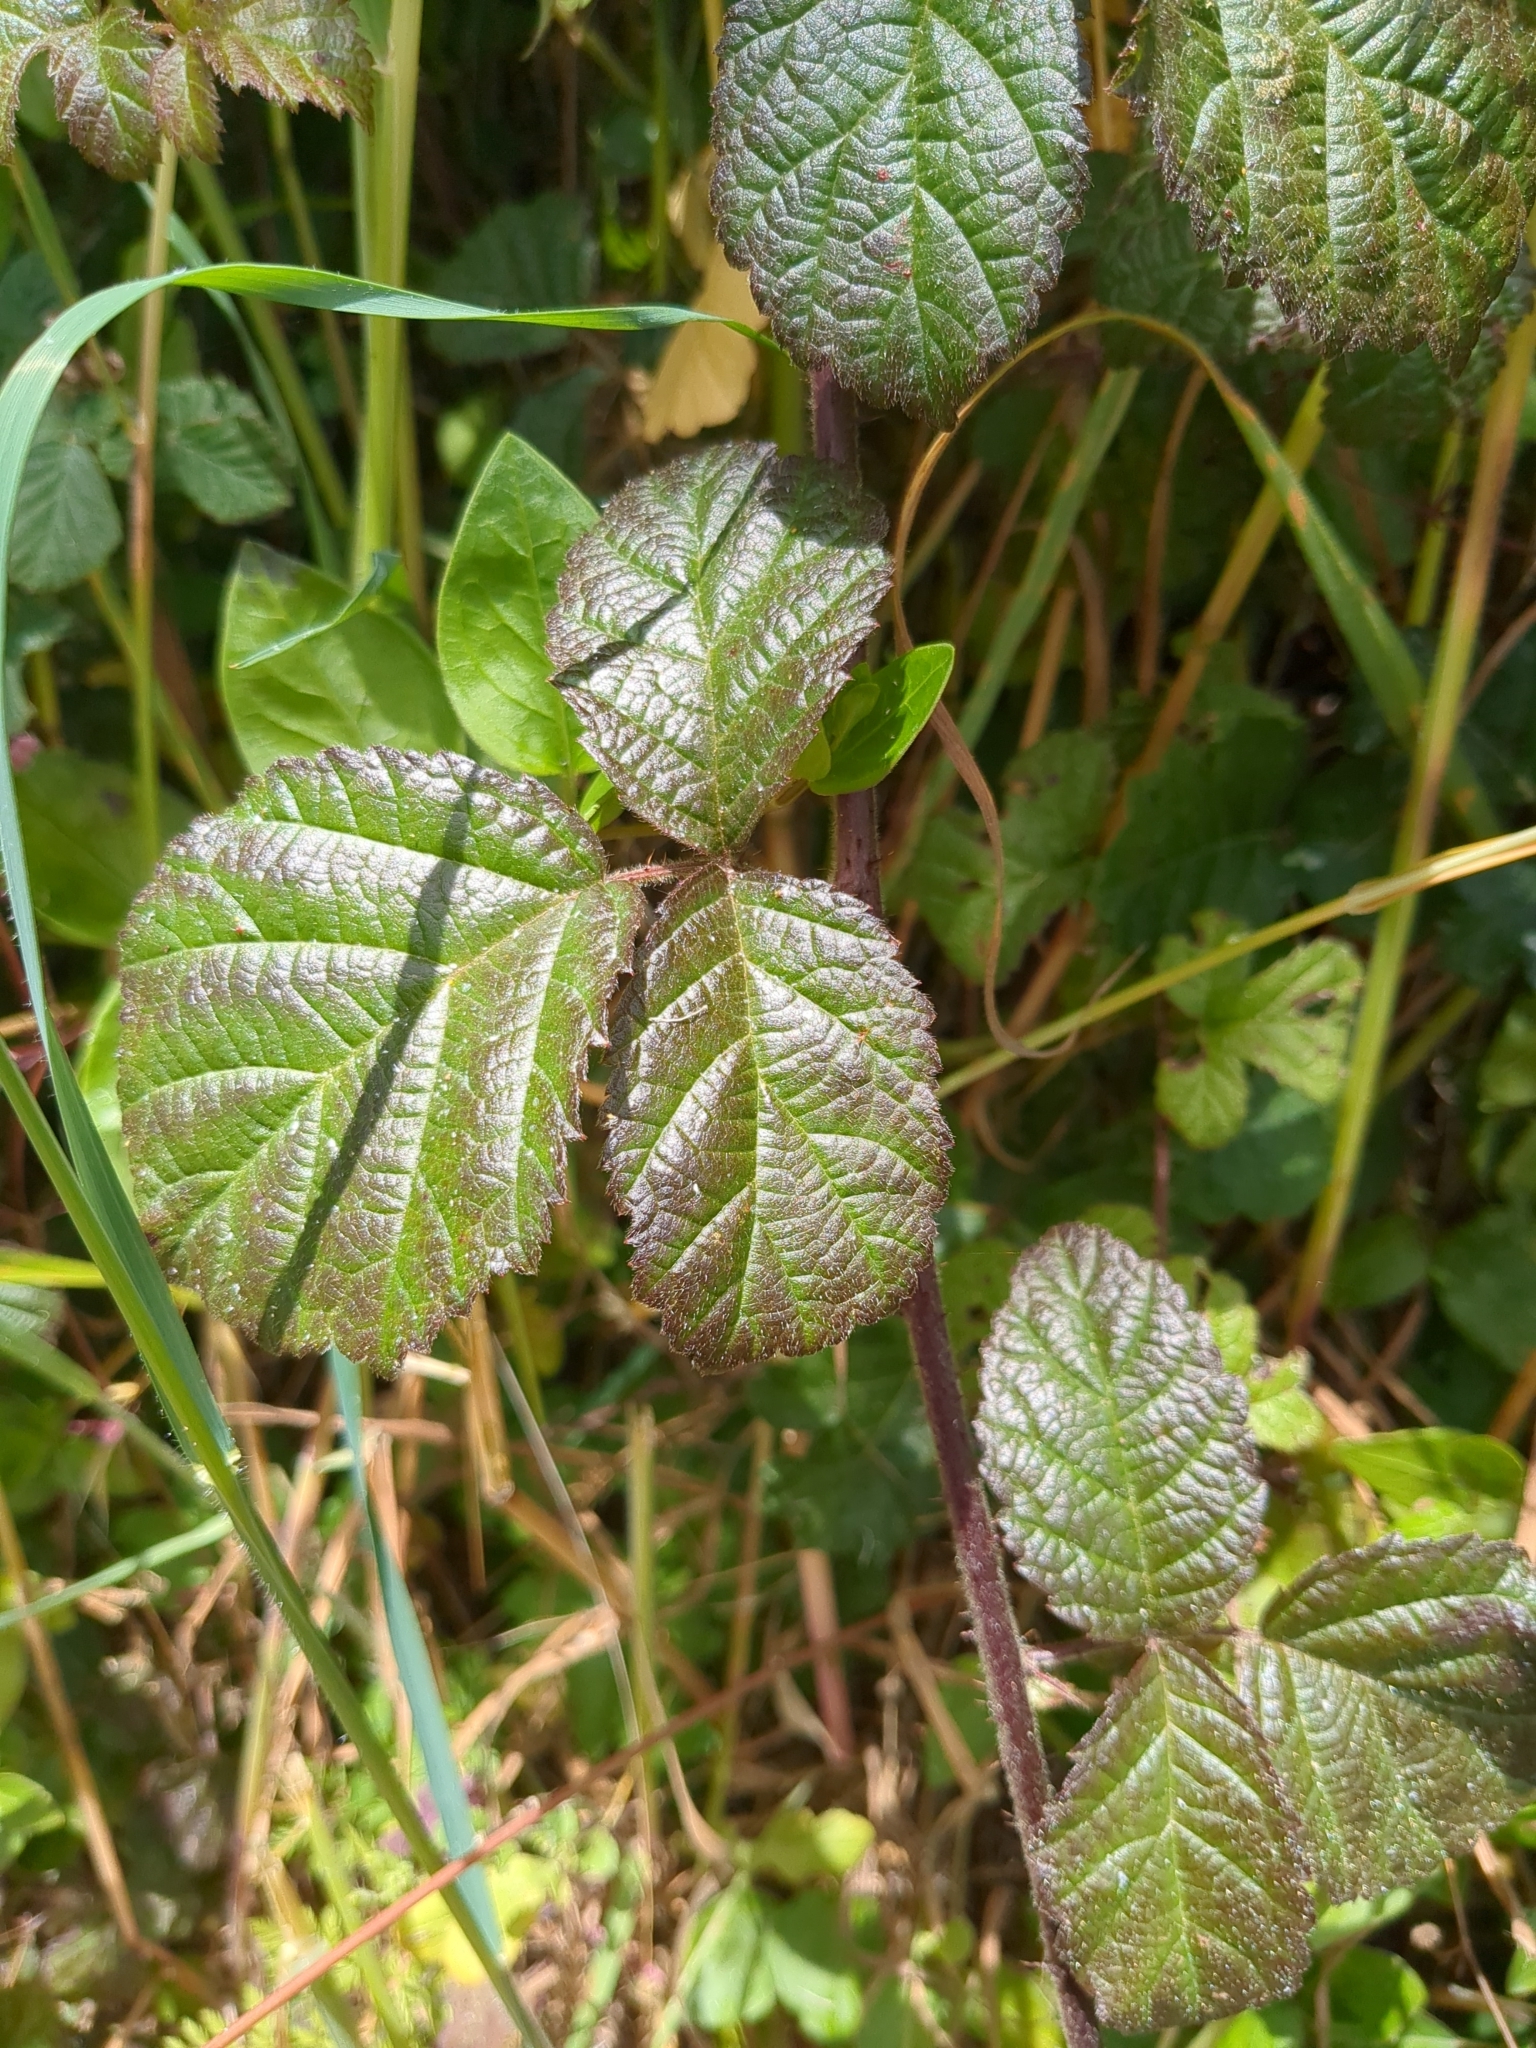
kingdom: Plantae
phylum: Tracheophyta
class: Magnoliopsida
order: Rosales
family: Rosaceae
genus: Rubus
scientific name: Rubus ursinus
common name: Pacific blackberry
